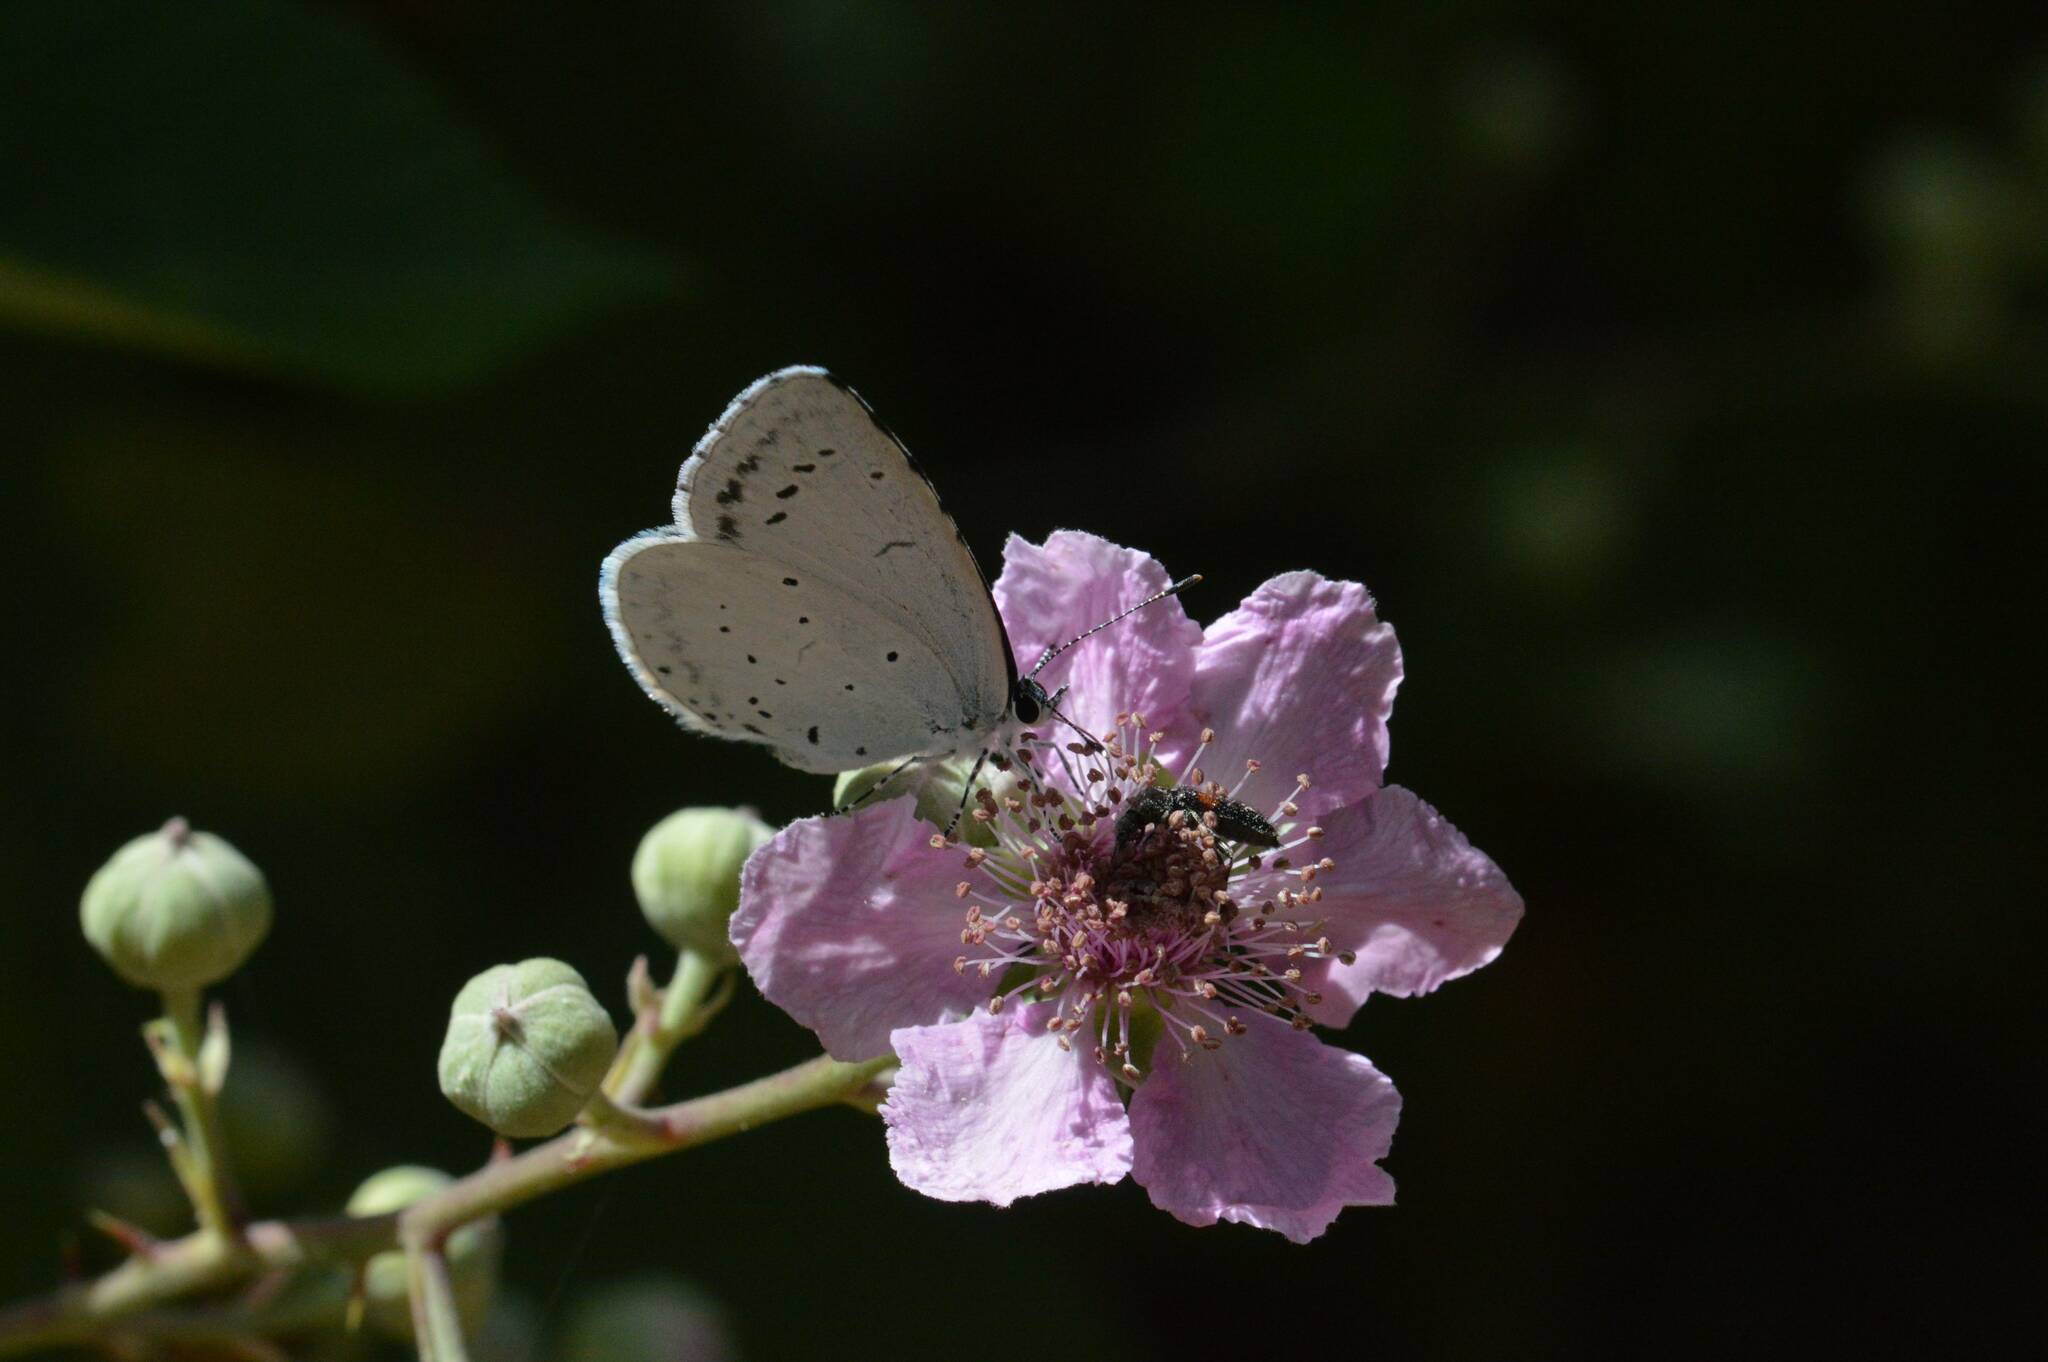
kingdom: Animalia
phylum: Arthropoda
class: Insecta
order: Lepidoptera
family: Lycaenidae
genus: Celastrina
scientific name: Celastrina argiolus
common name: Holly blue
